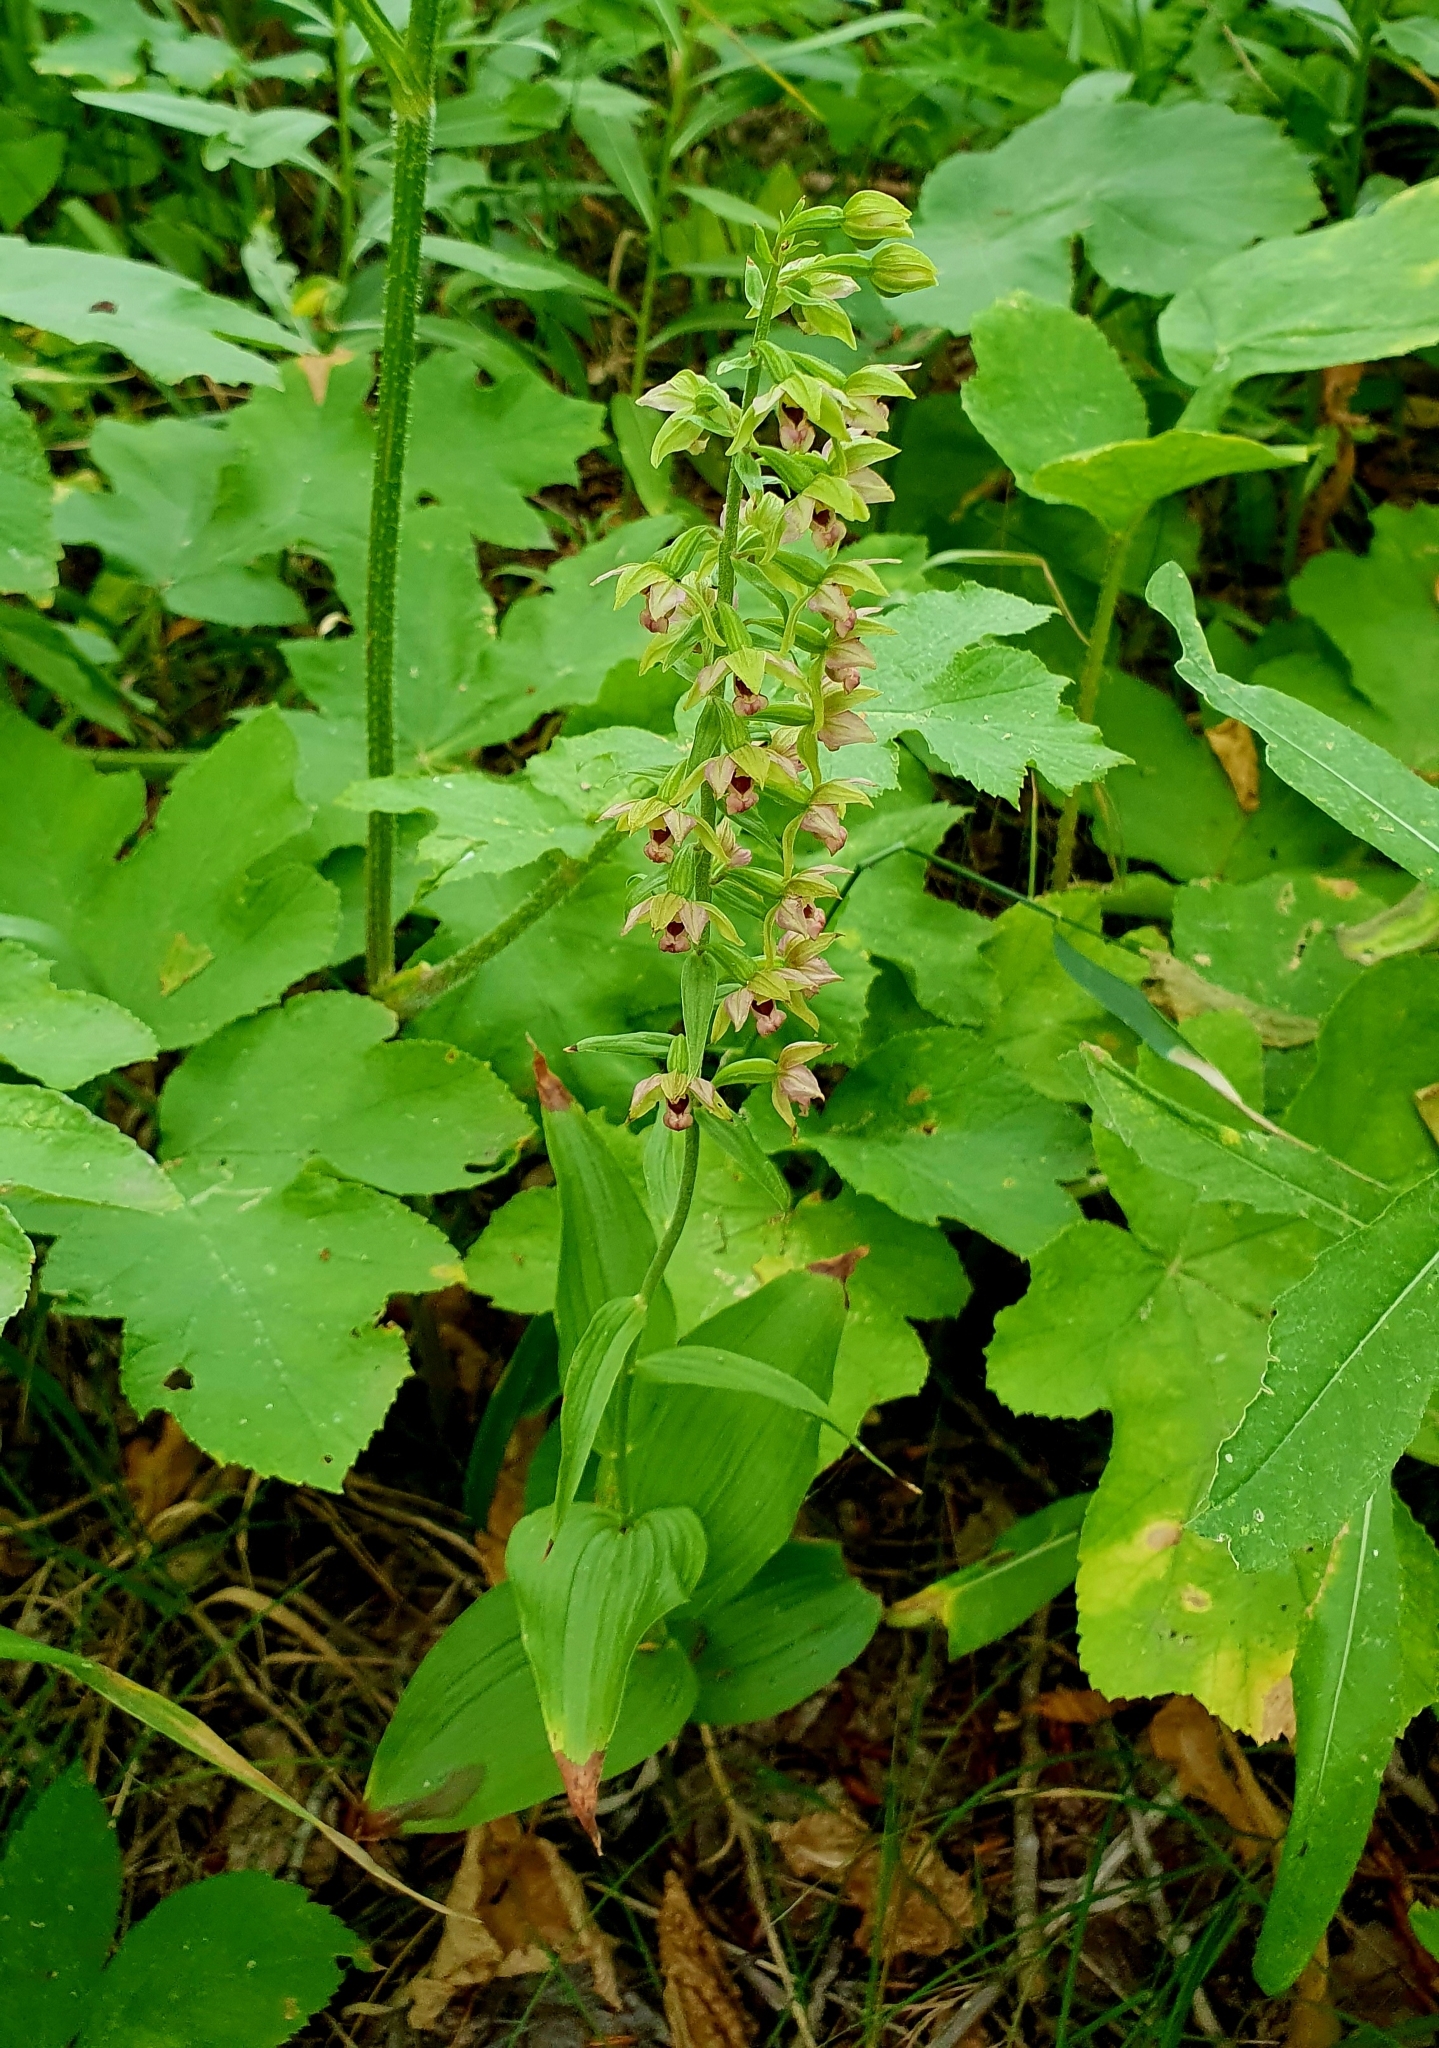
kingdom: Plantae
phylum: Tracheophyta
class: Liliopsida
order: Asparagales
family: Orchidaceae
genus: Epipactis
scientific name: Epipactis helleborine
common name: Broad-leaved helleborine
